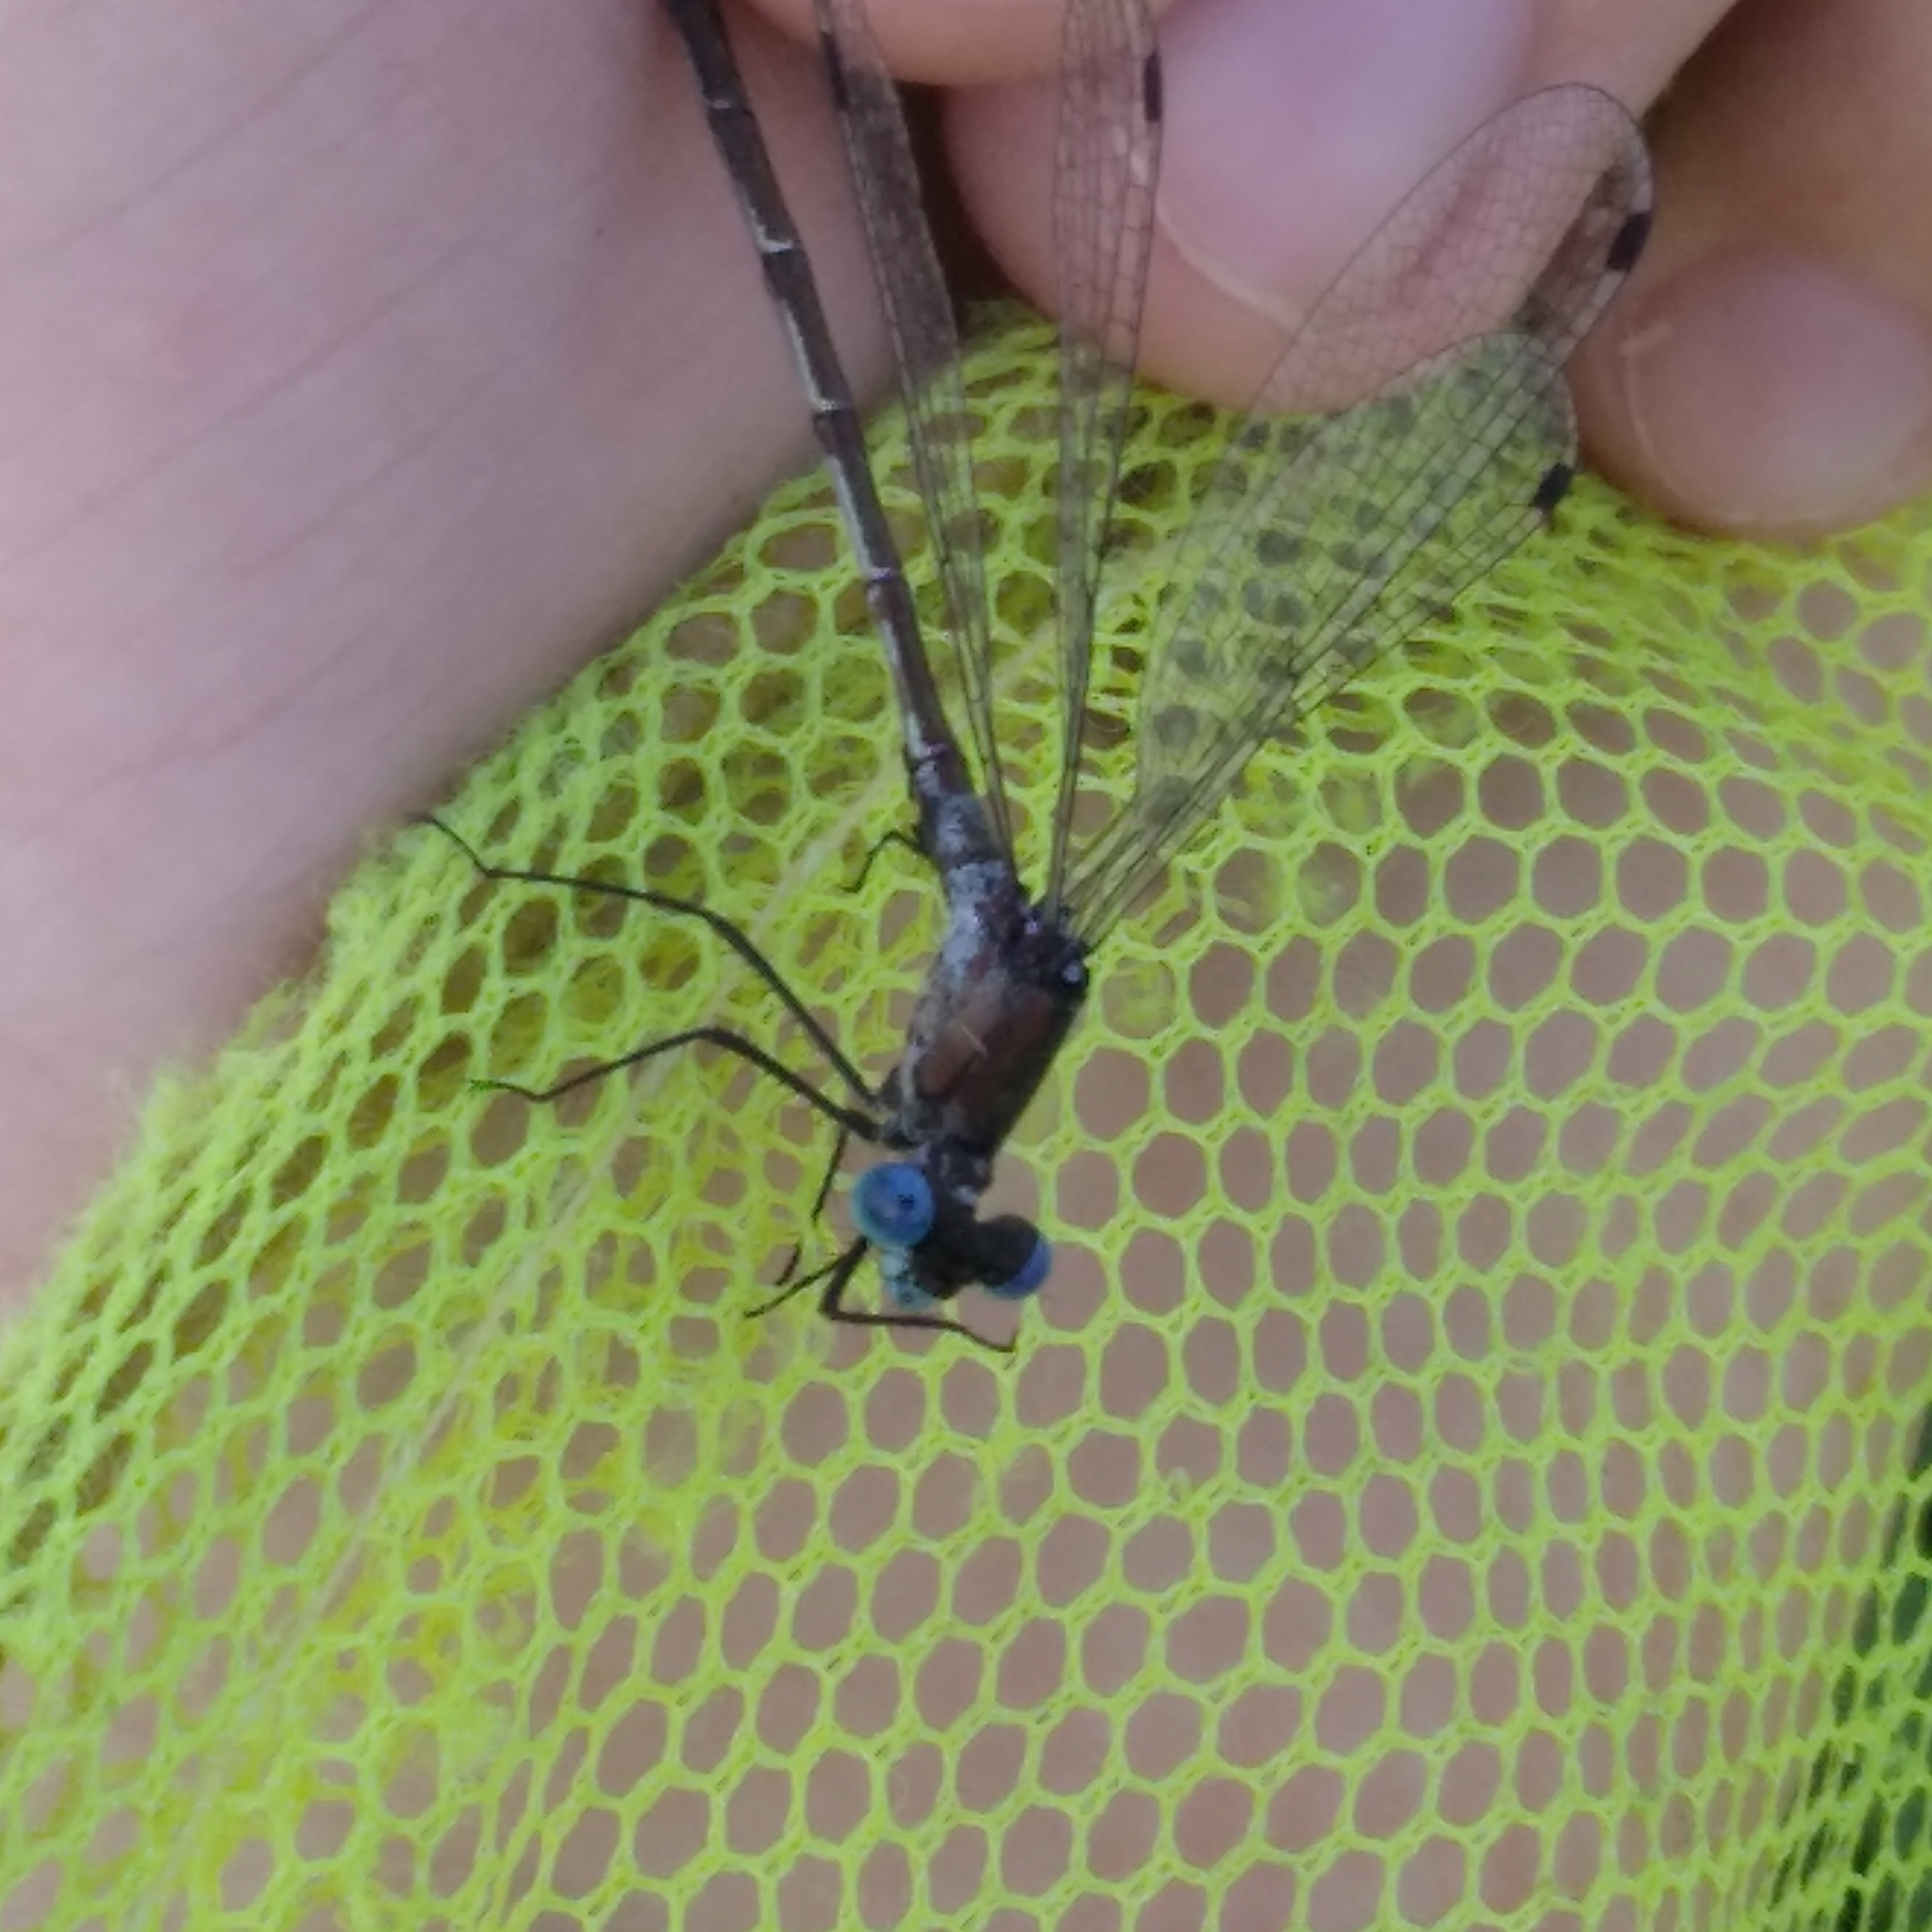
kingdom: Animalia
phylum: Arthropoda
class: Insecta
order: Odonata
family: Lestidae
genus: Lestes
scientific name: Lestes dryas
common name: Scarce emerald damselfly
